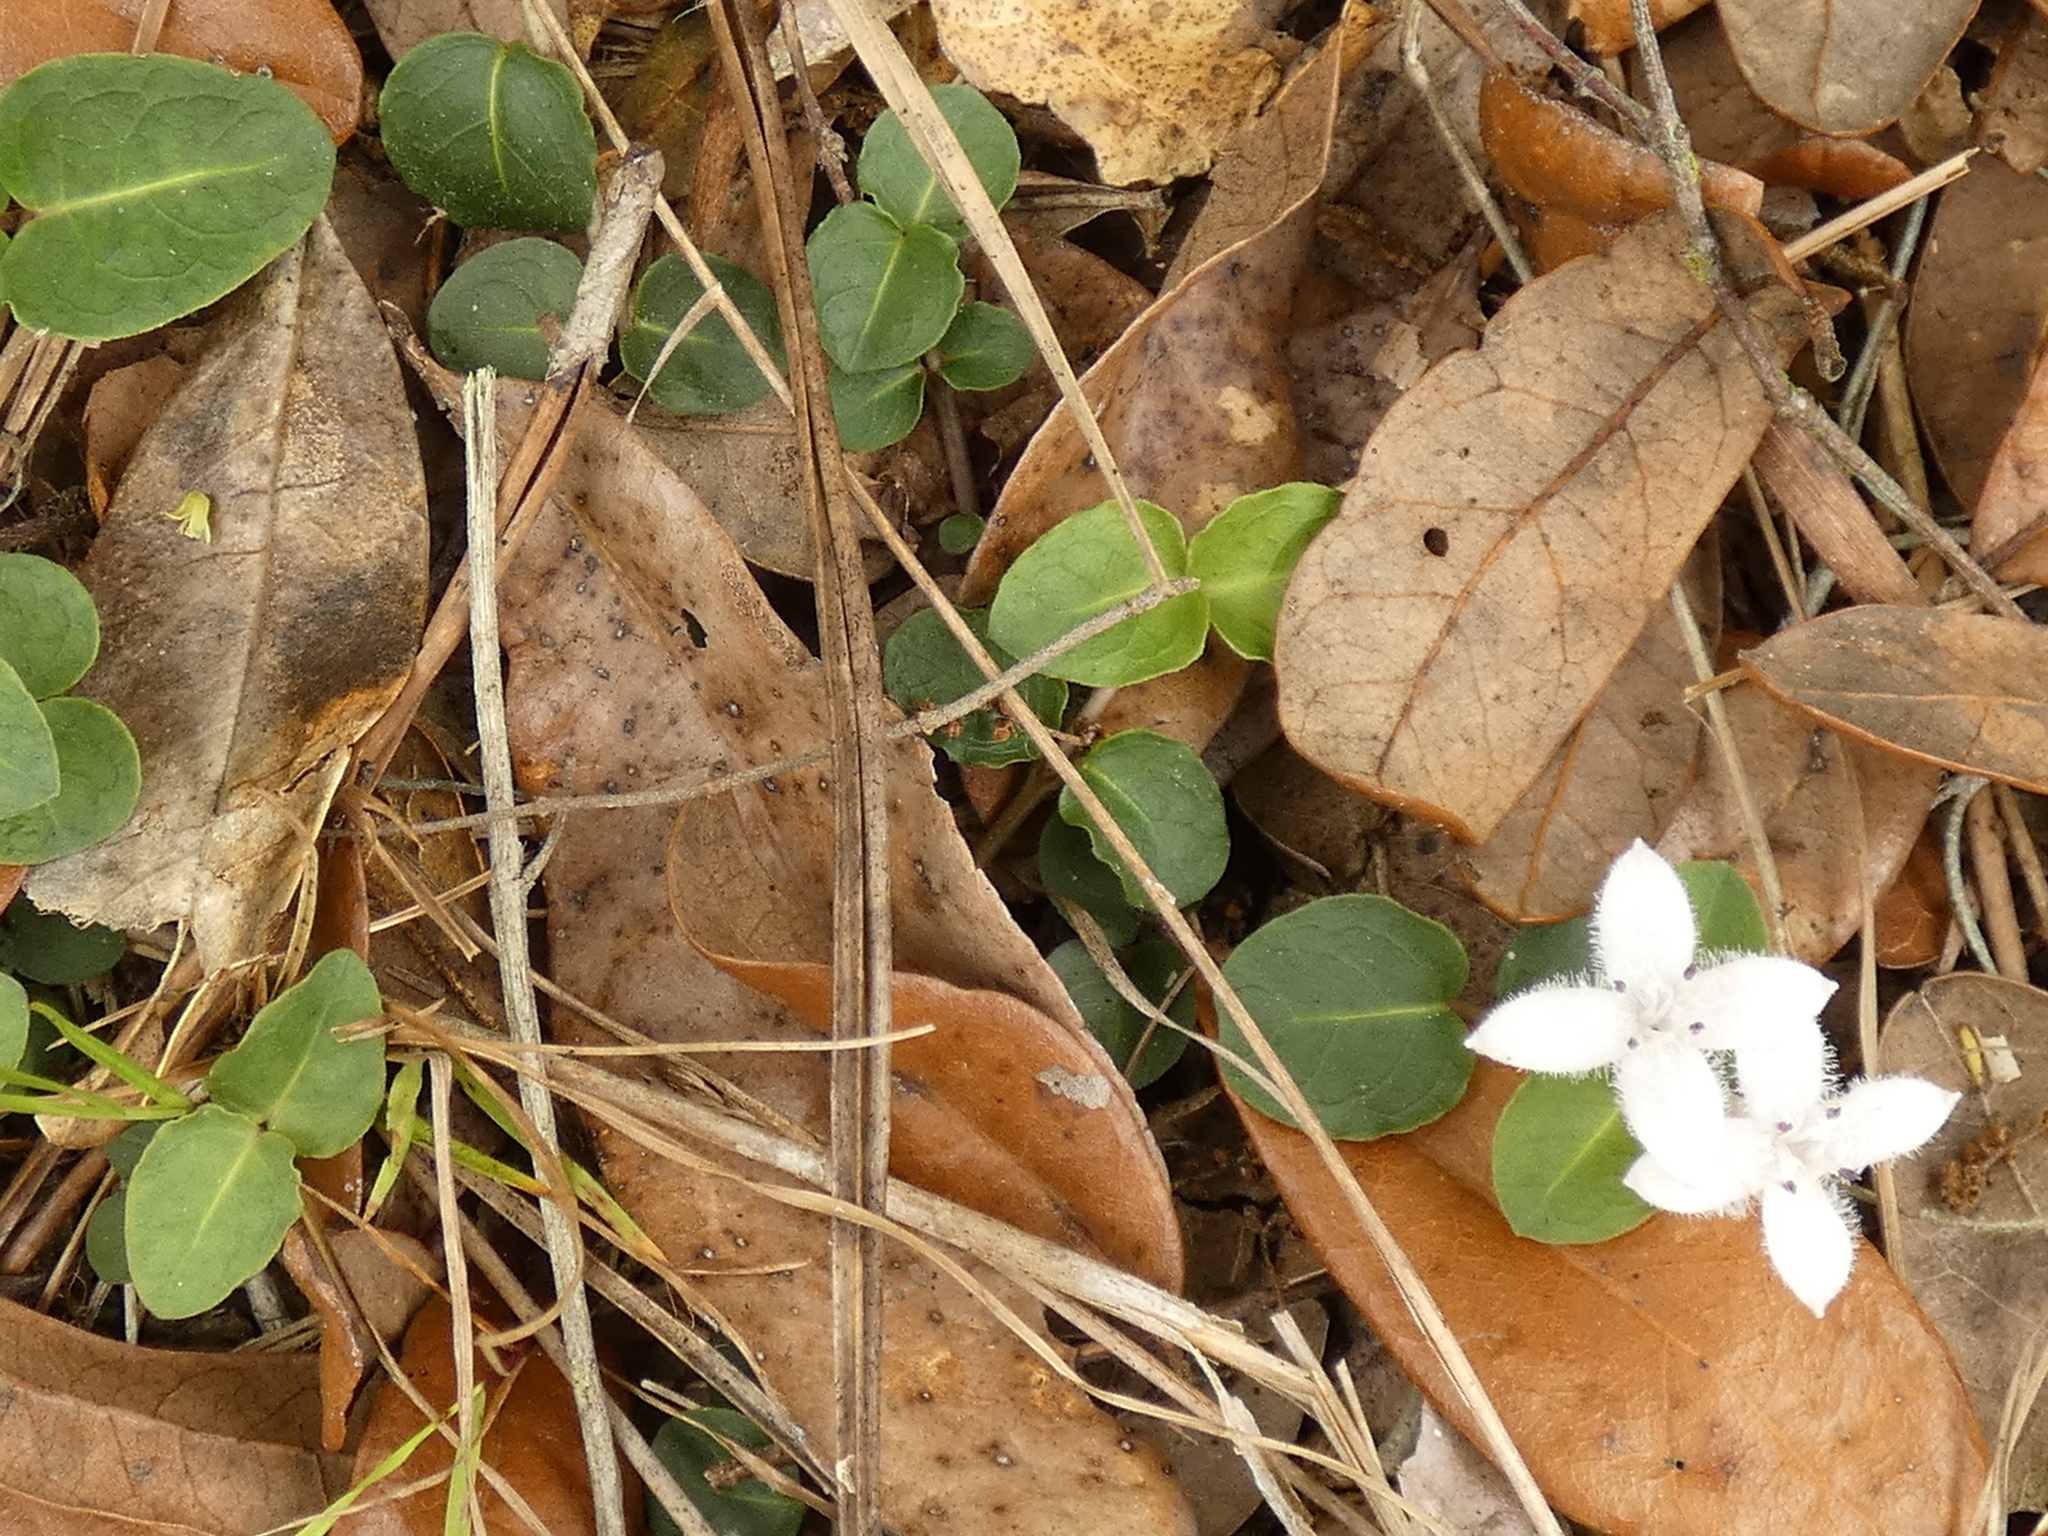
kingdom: Plantae
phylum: Tracheophyta
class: Magnoliopsida
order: Gentianales
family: Rubiaceae
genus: Mitchella
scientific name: Mitchella repens
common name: Partridge-berry
